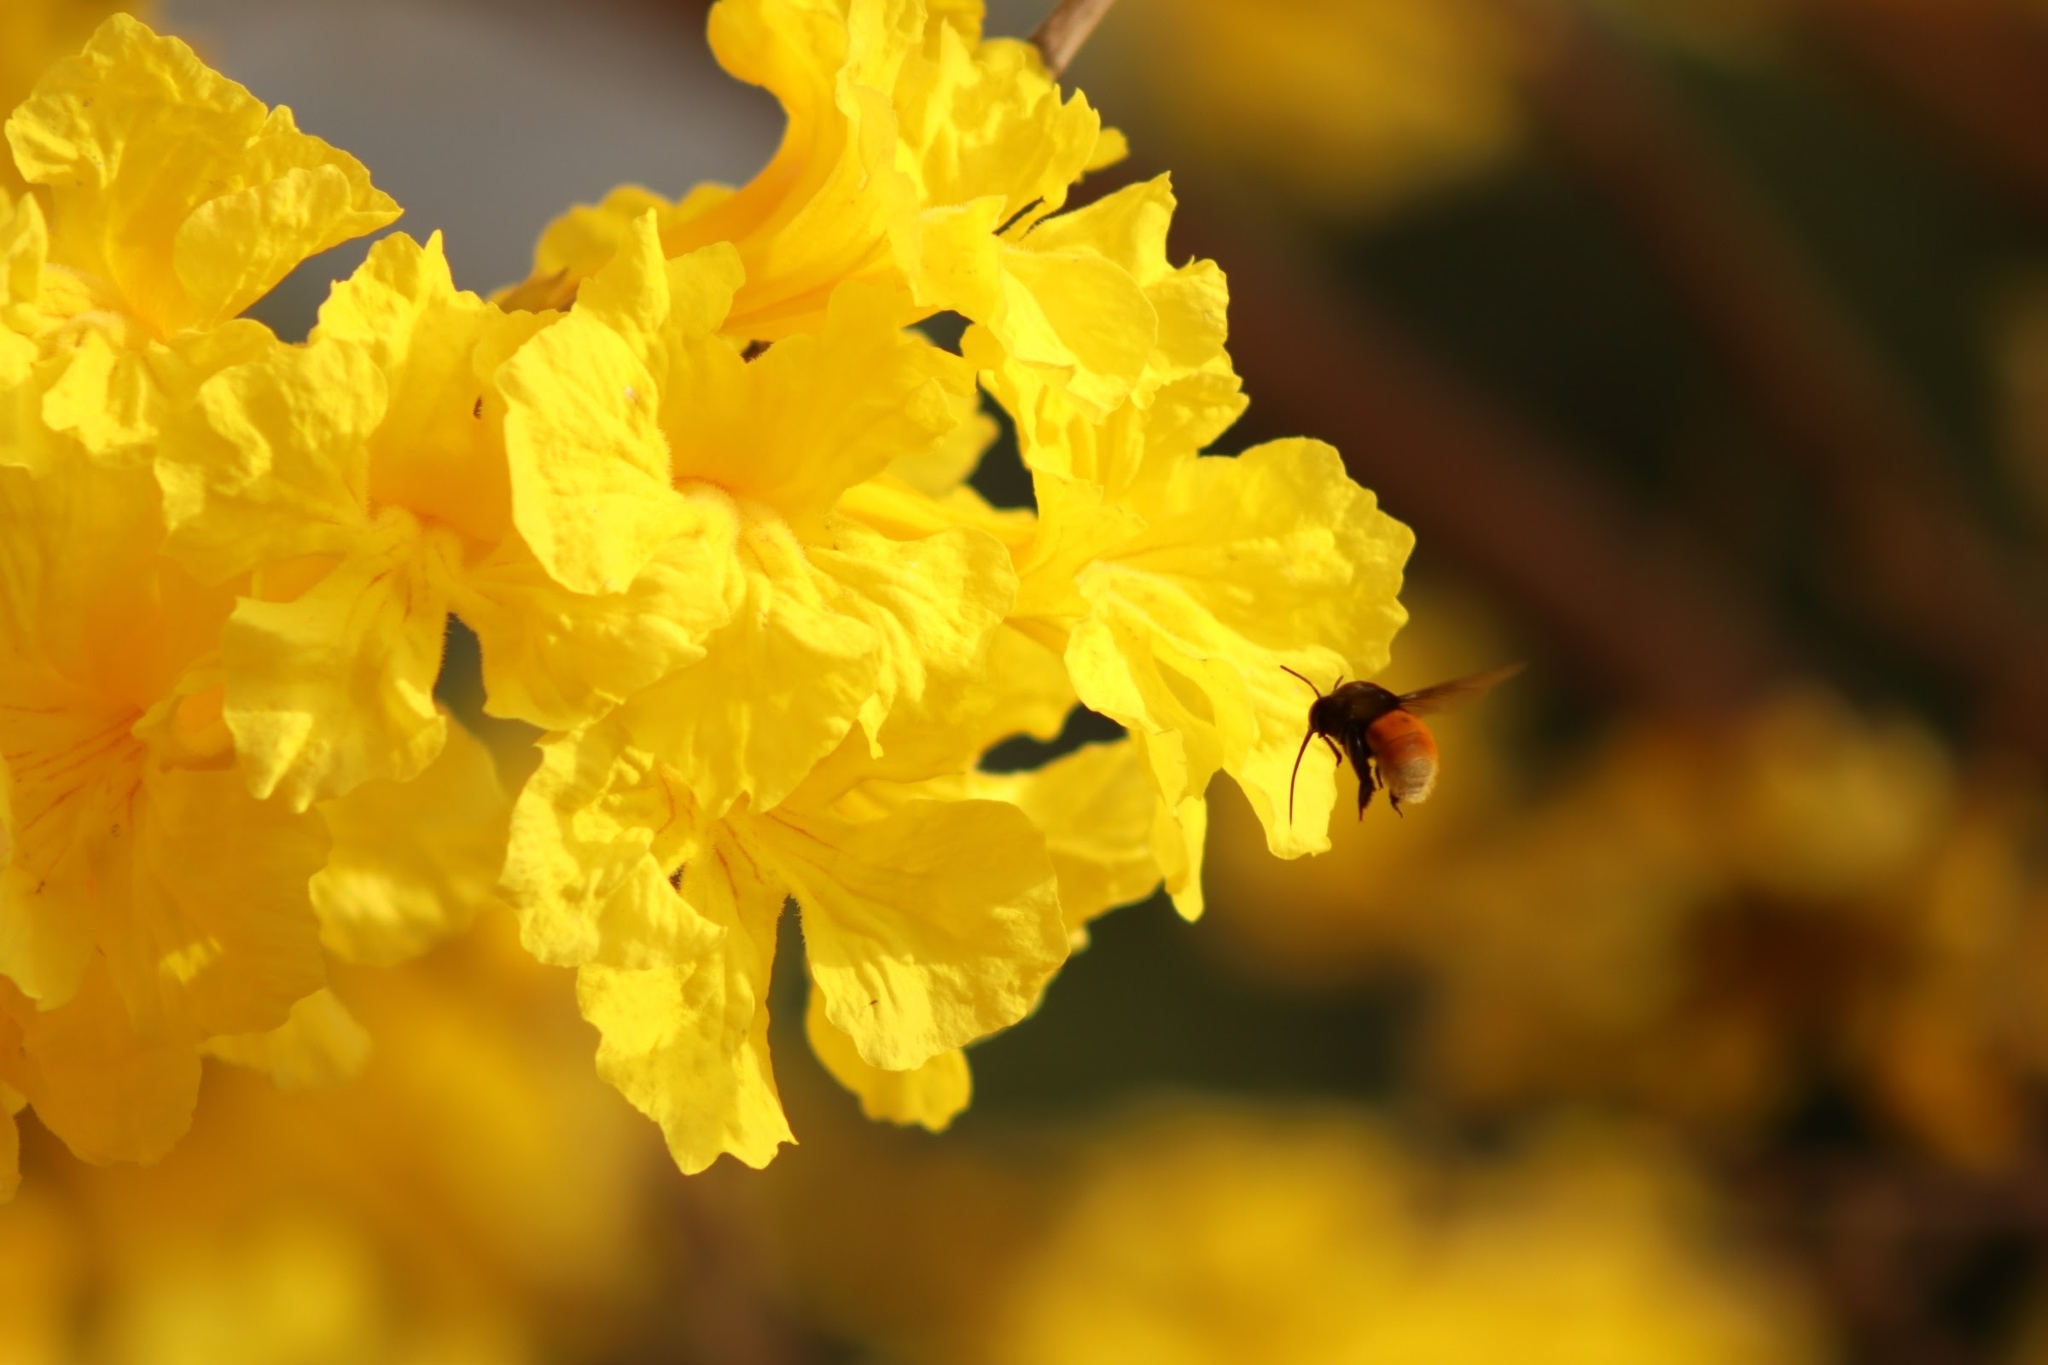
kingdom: Animalia
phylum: Arthropoda
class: Insecta
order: Hymenoptera
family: Apidae
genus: Eulaema
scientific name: Eulaema polychroma
